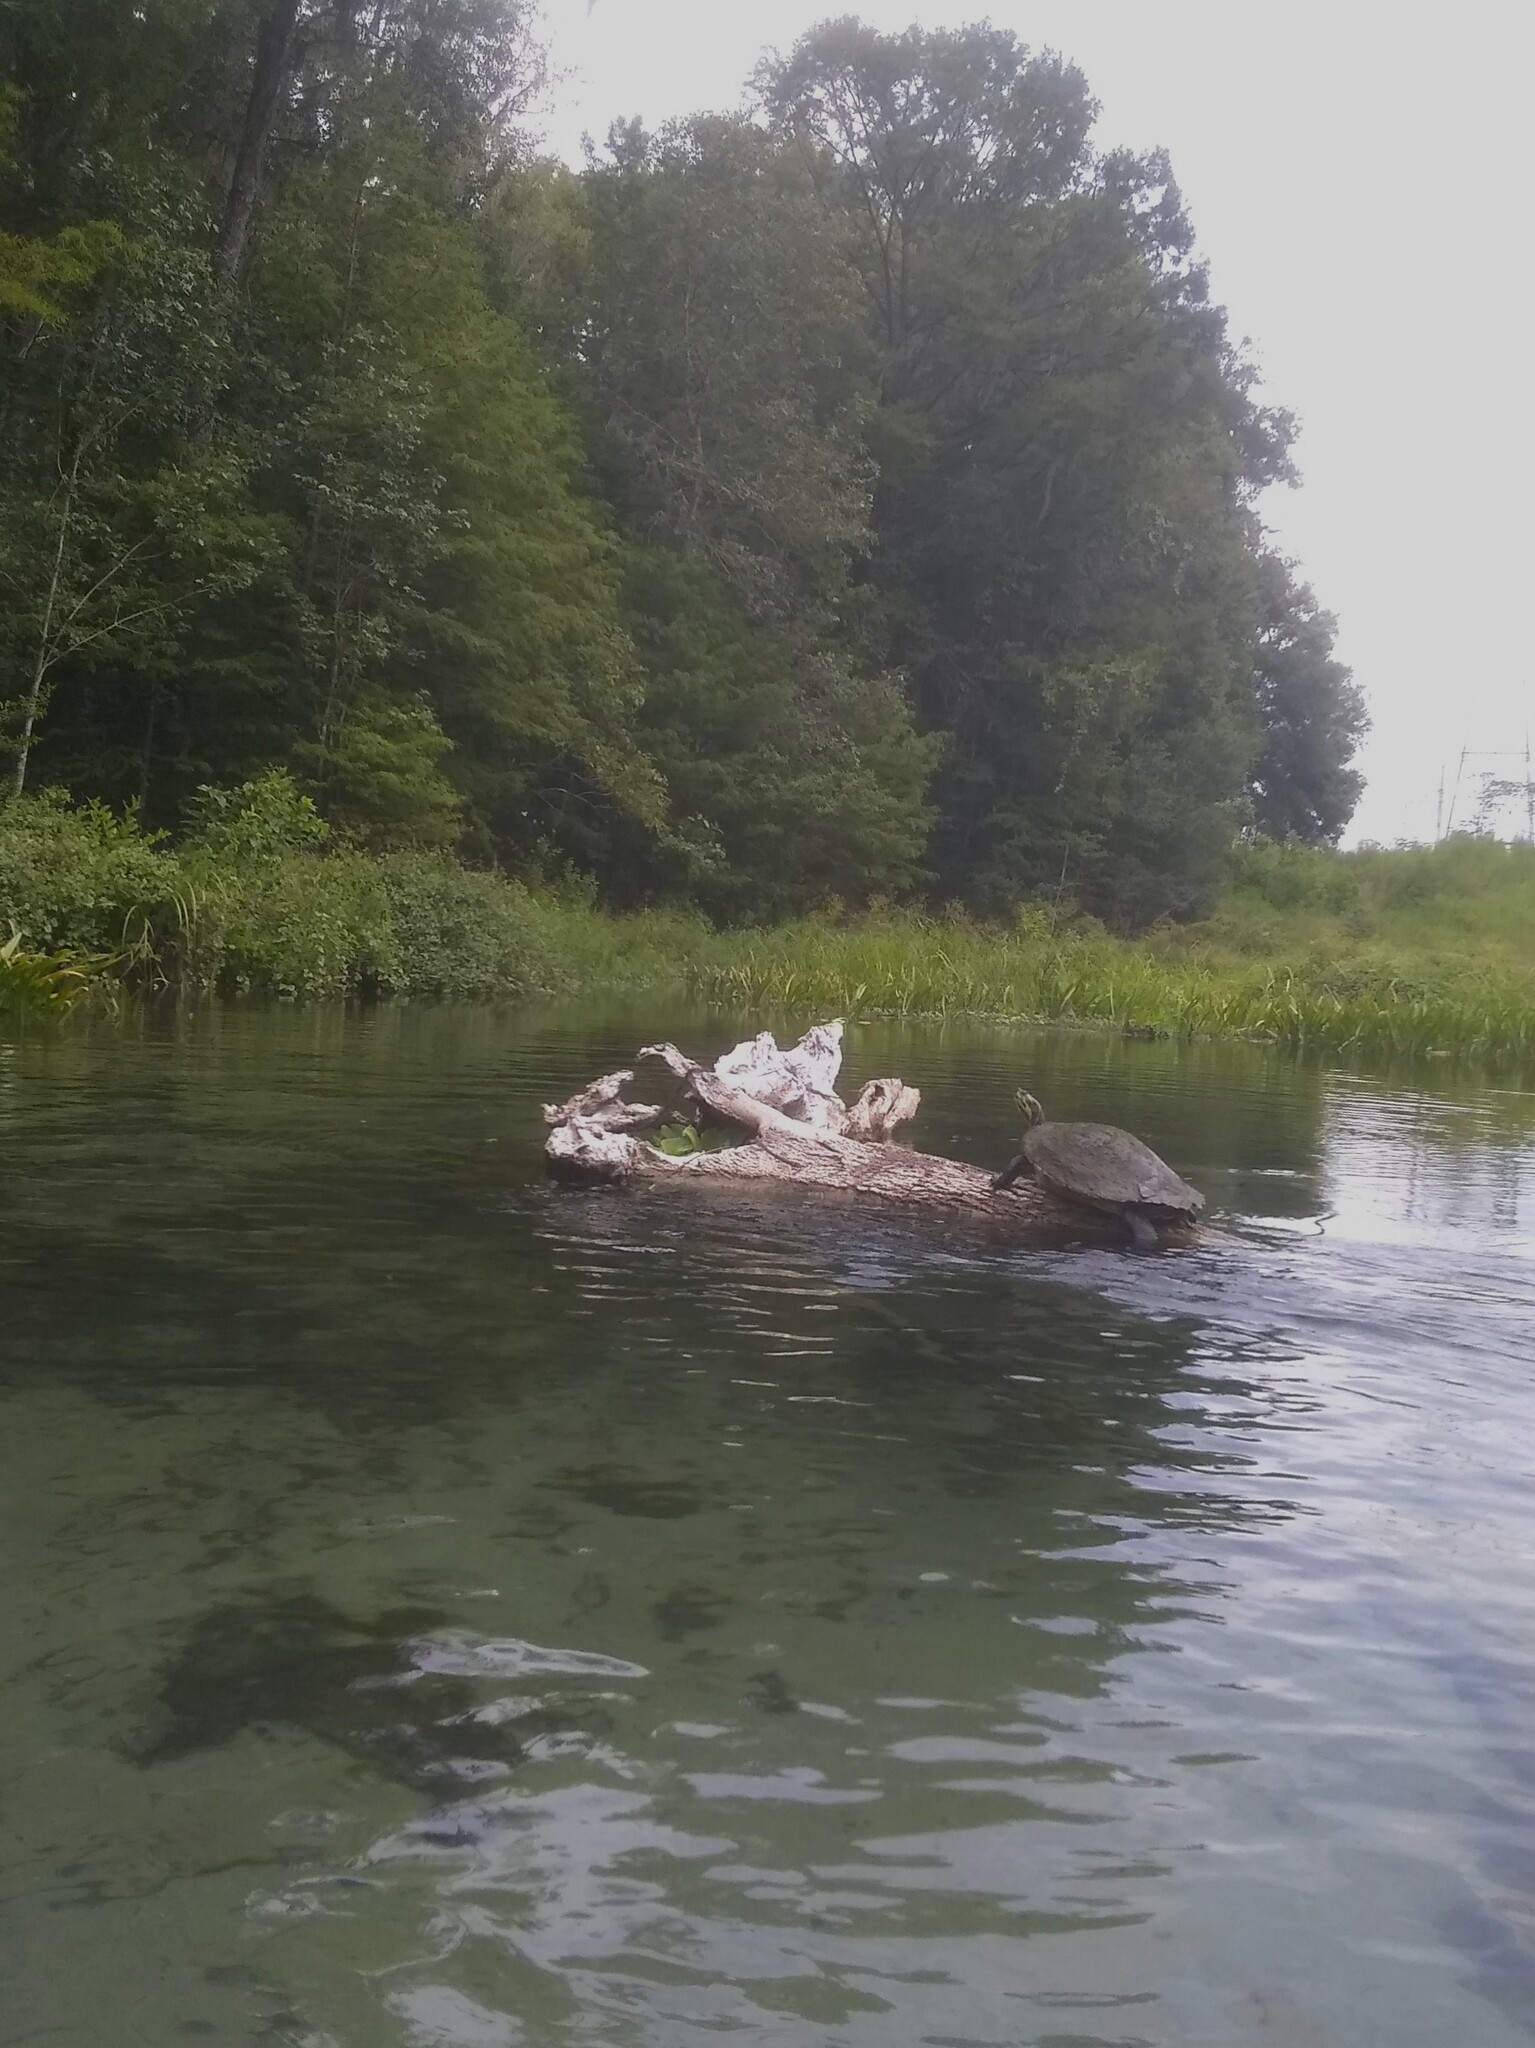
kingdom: Animalia
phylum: Chordata
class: Testudines
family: Emydidae
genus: Pseudemys
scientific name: Pseudemys concinna
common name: Eastern river cooter
